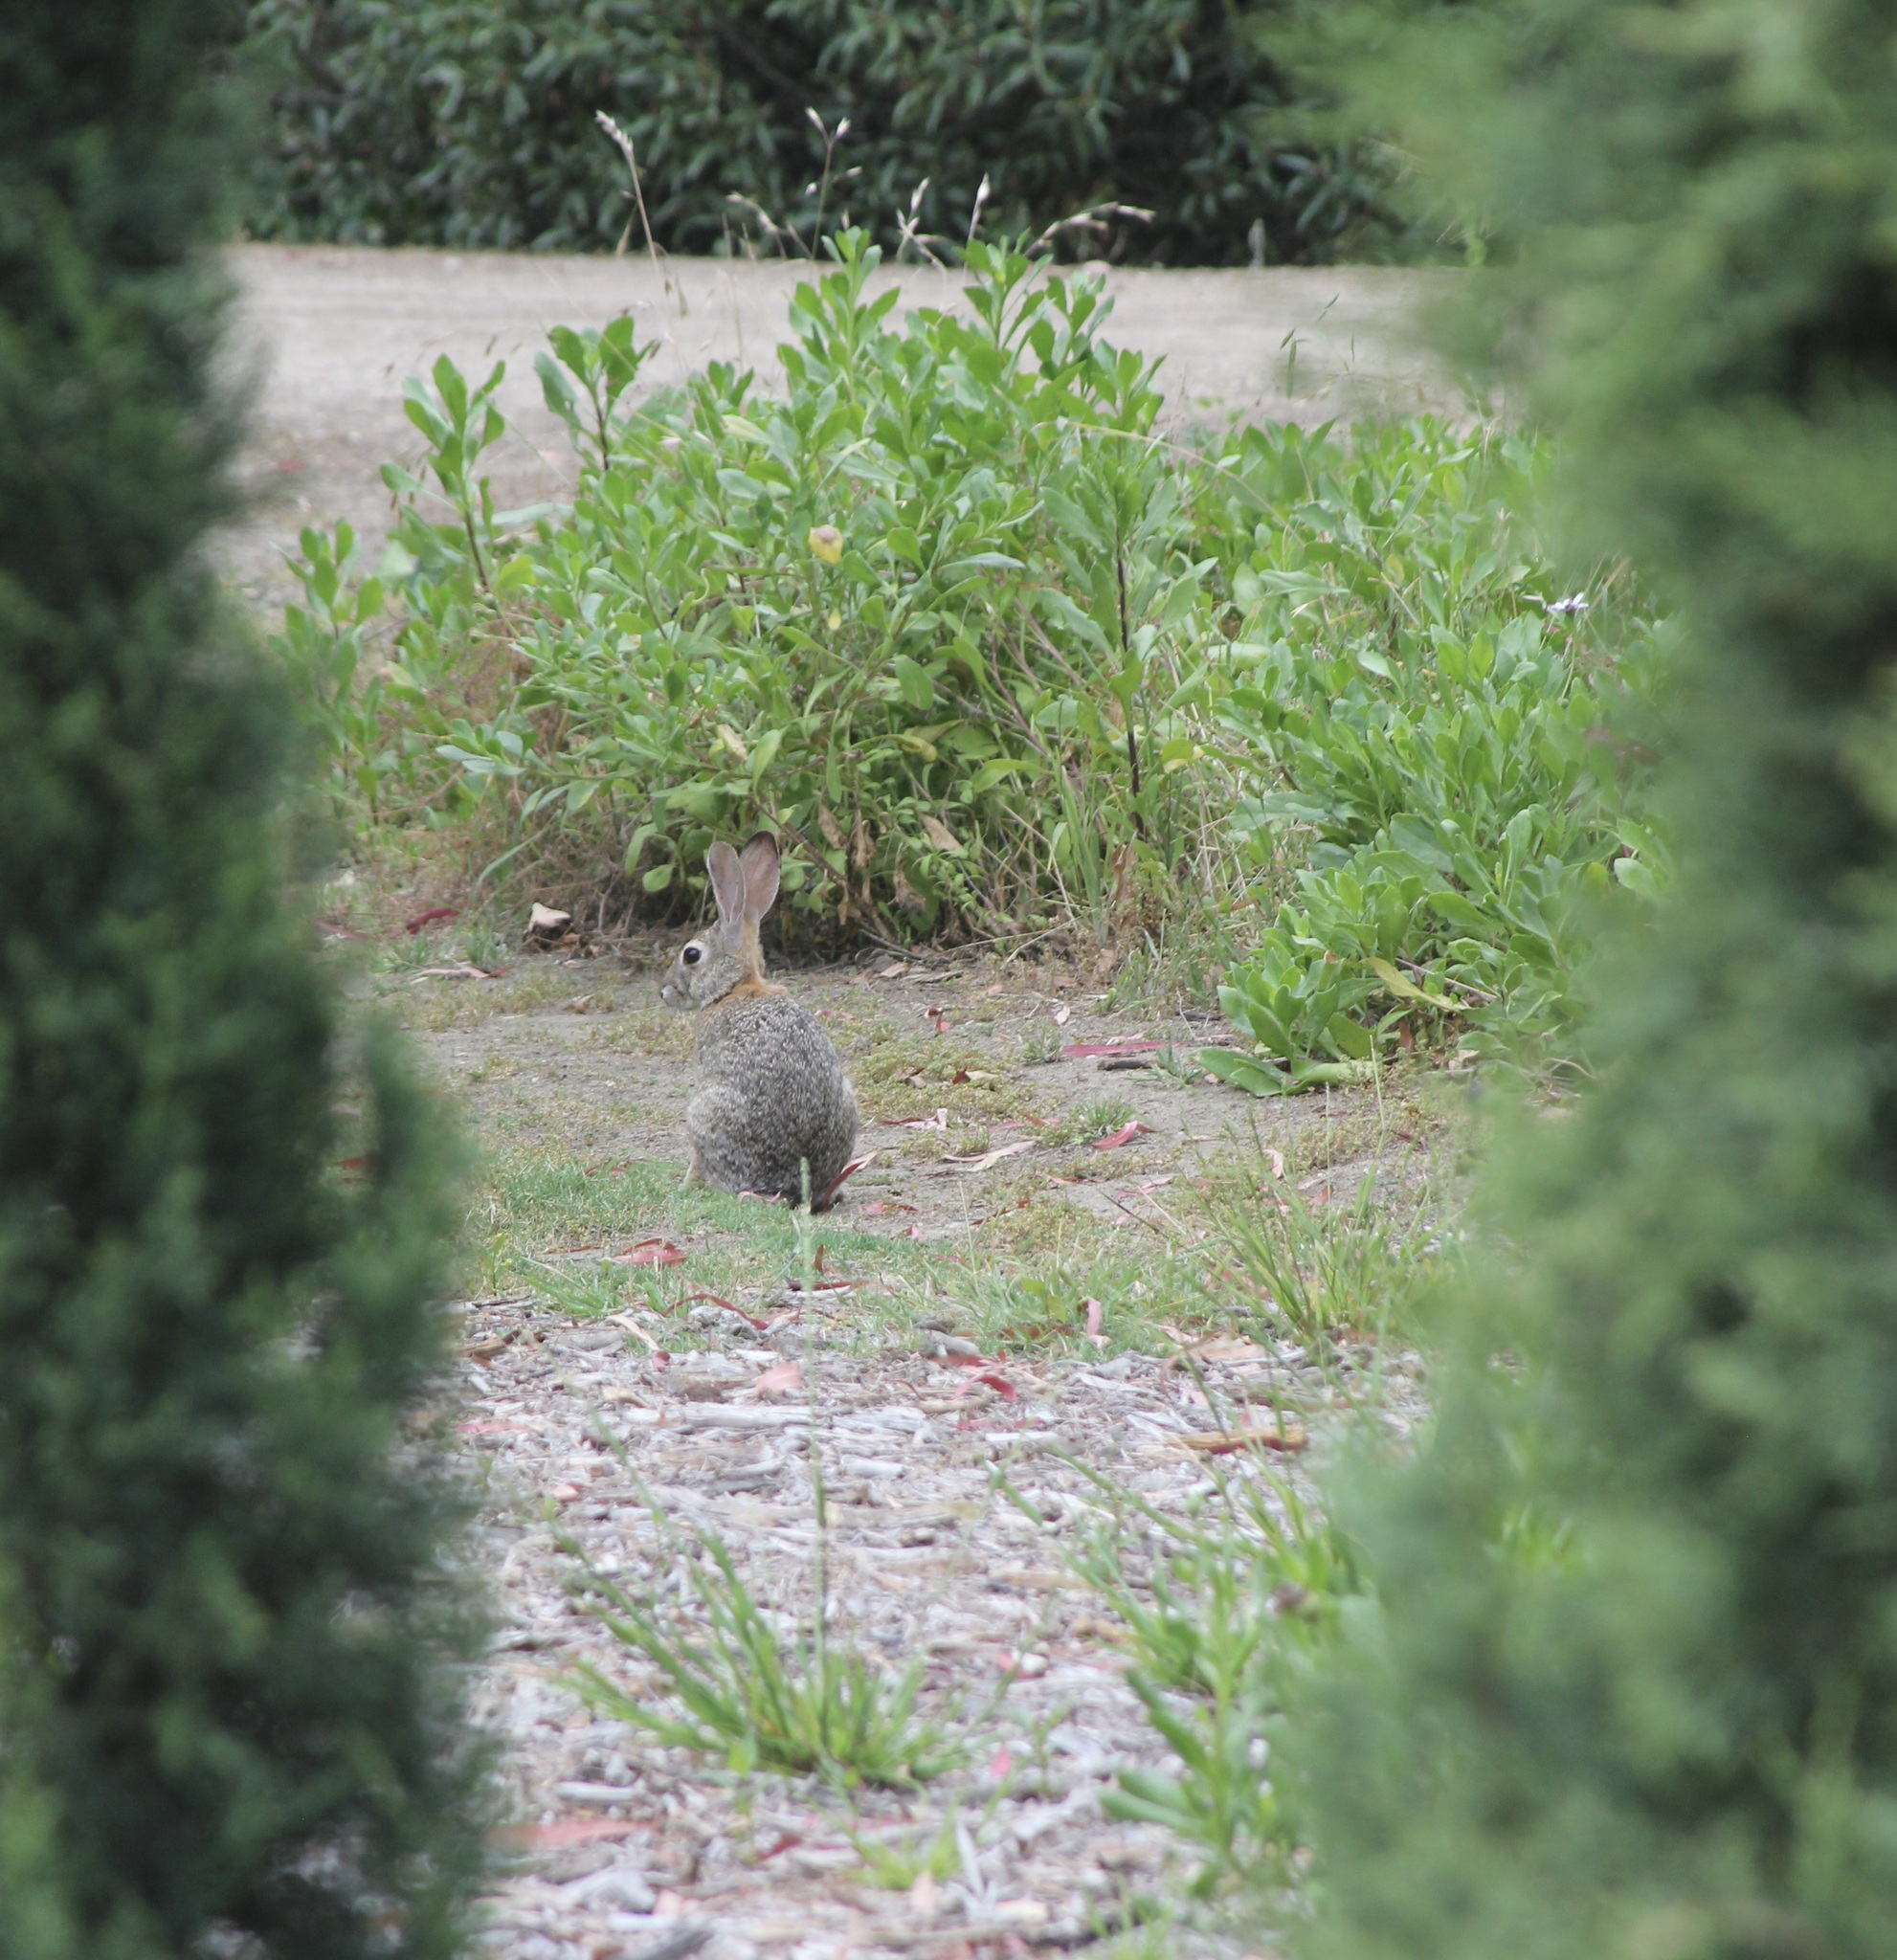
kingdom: Animalia
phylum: Chordata
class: Mammalia
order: Lagomorpha
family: Leporidae
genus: Sylvilagus
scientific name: Sylvilagus audubonii
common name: Desert cottontail
